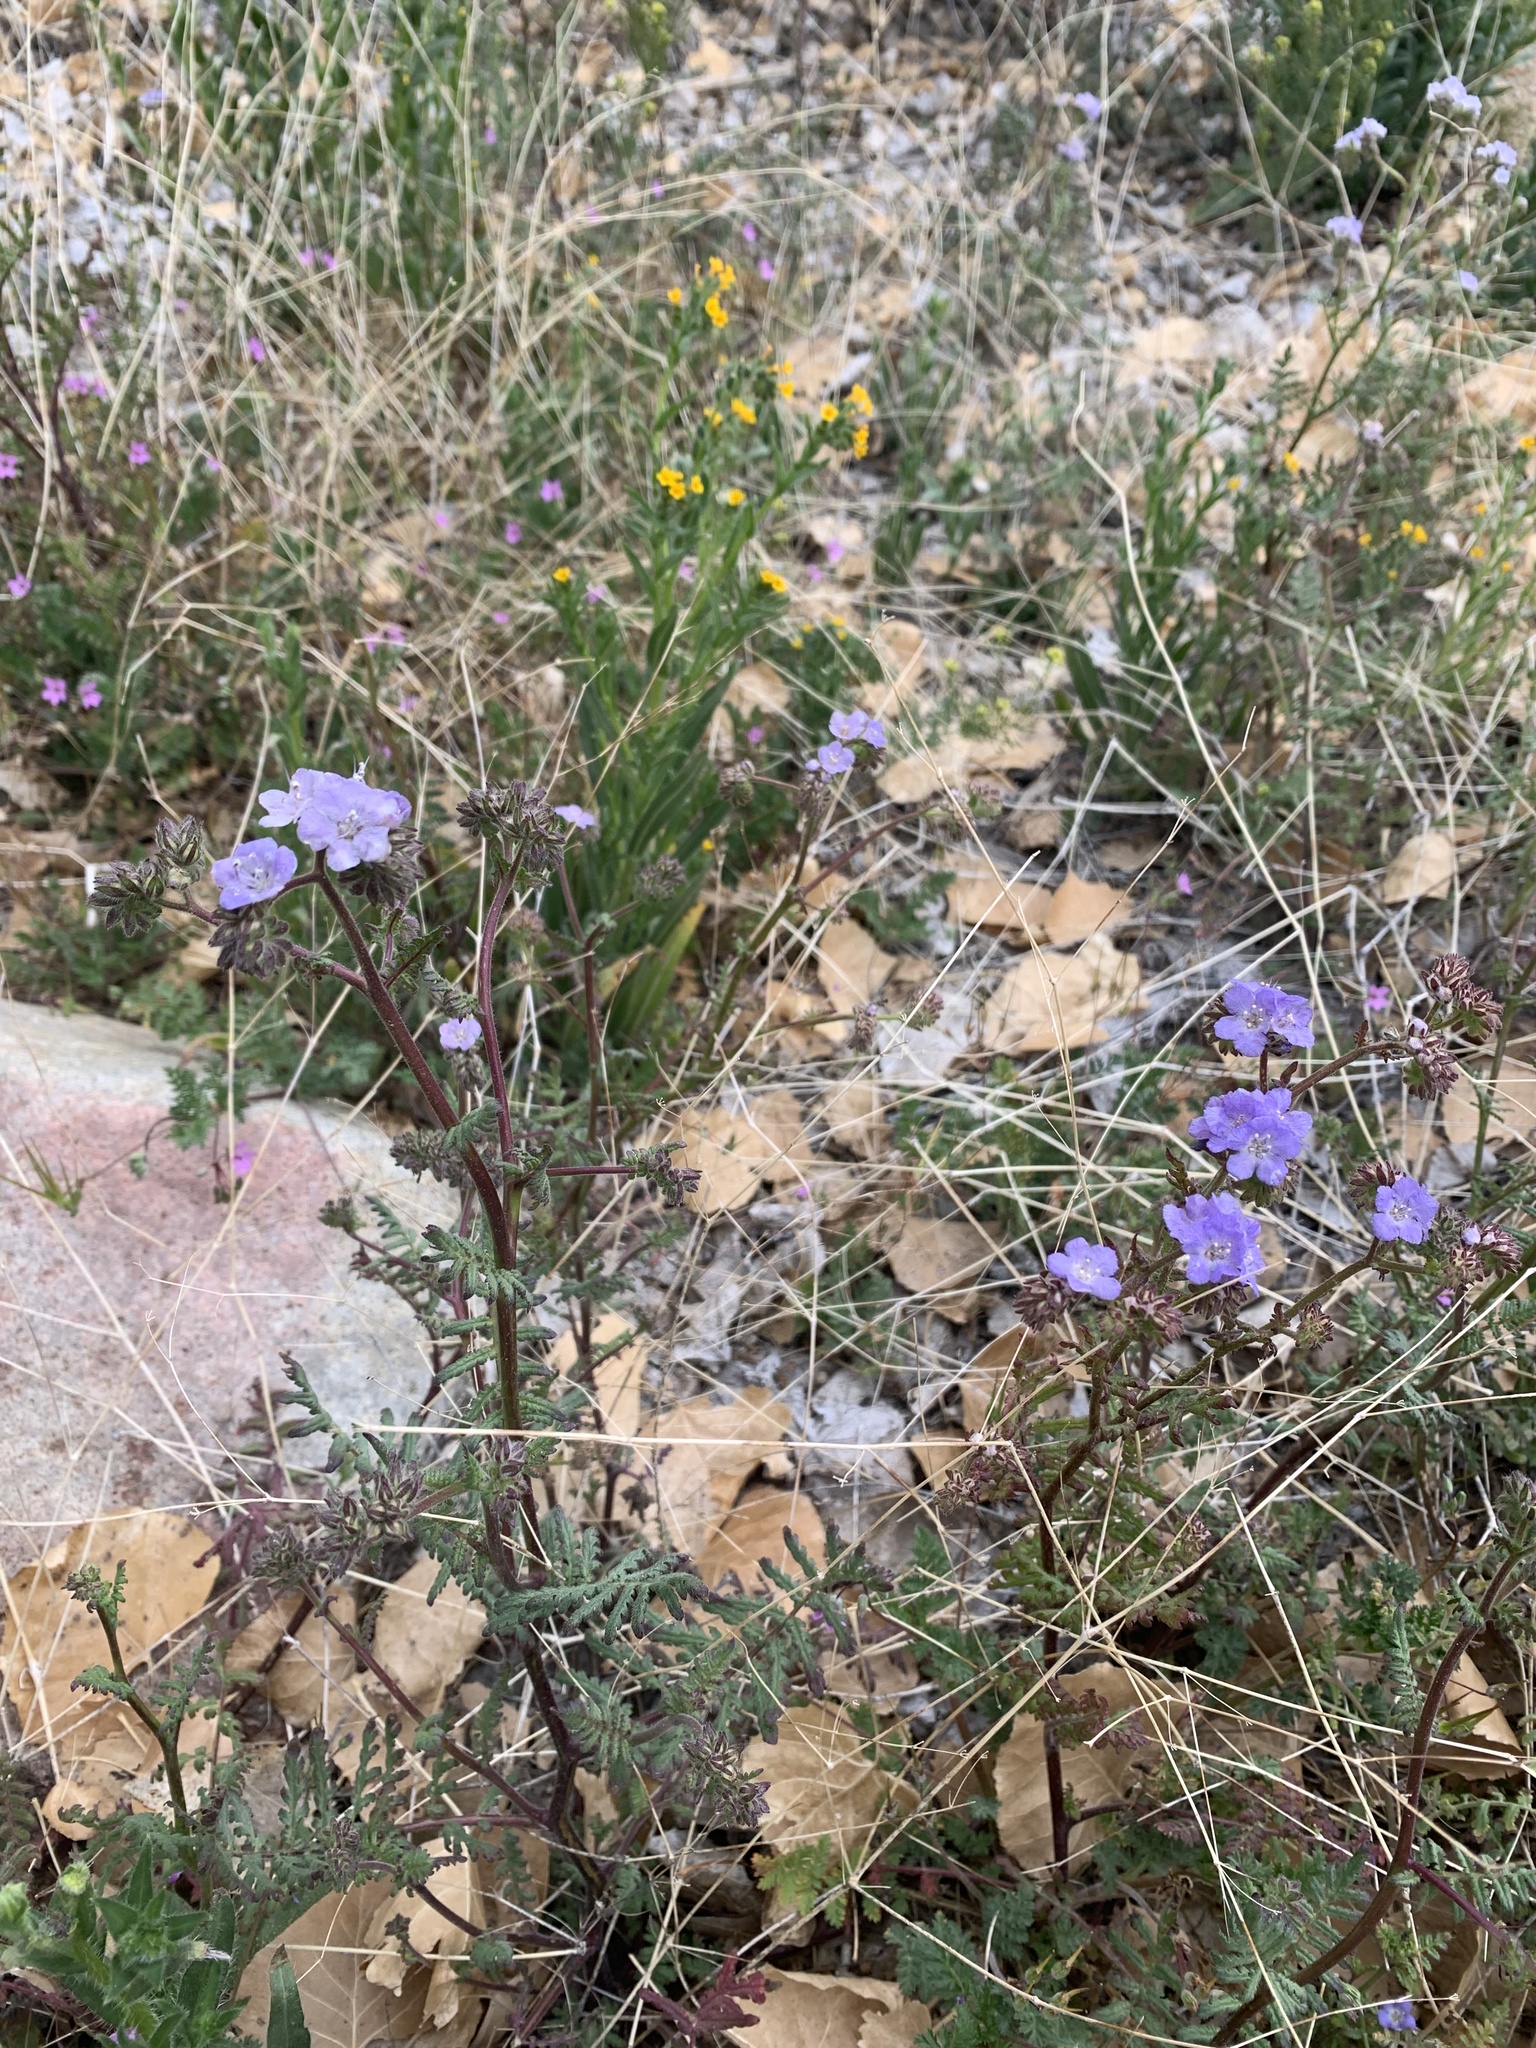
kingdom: Plantae
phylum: Tracheophyta
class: Magnoliopsida
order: Boraginales
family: Hydrophyllaceae
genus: Phacelia
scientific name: Phacelia distans
